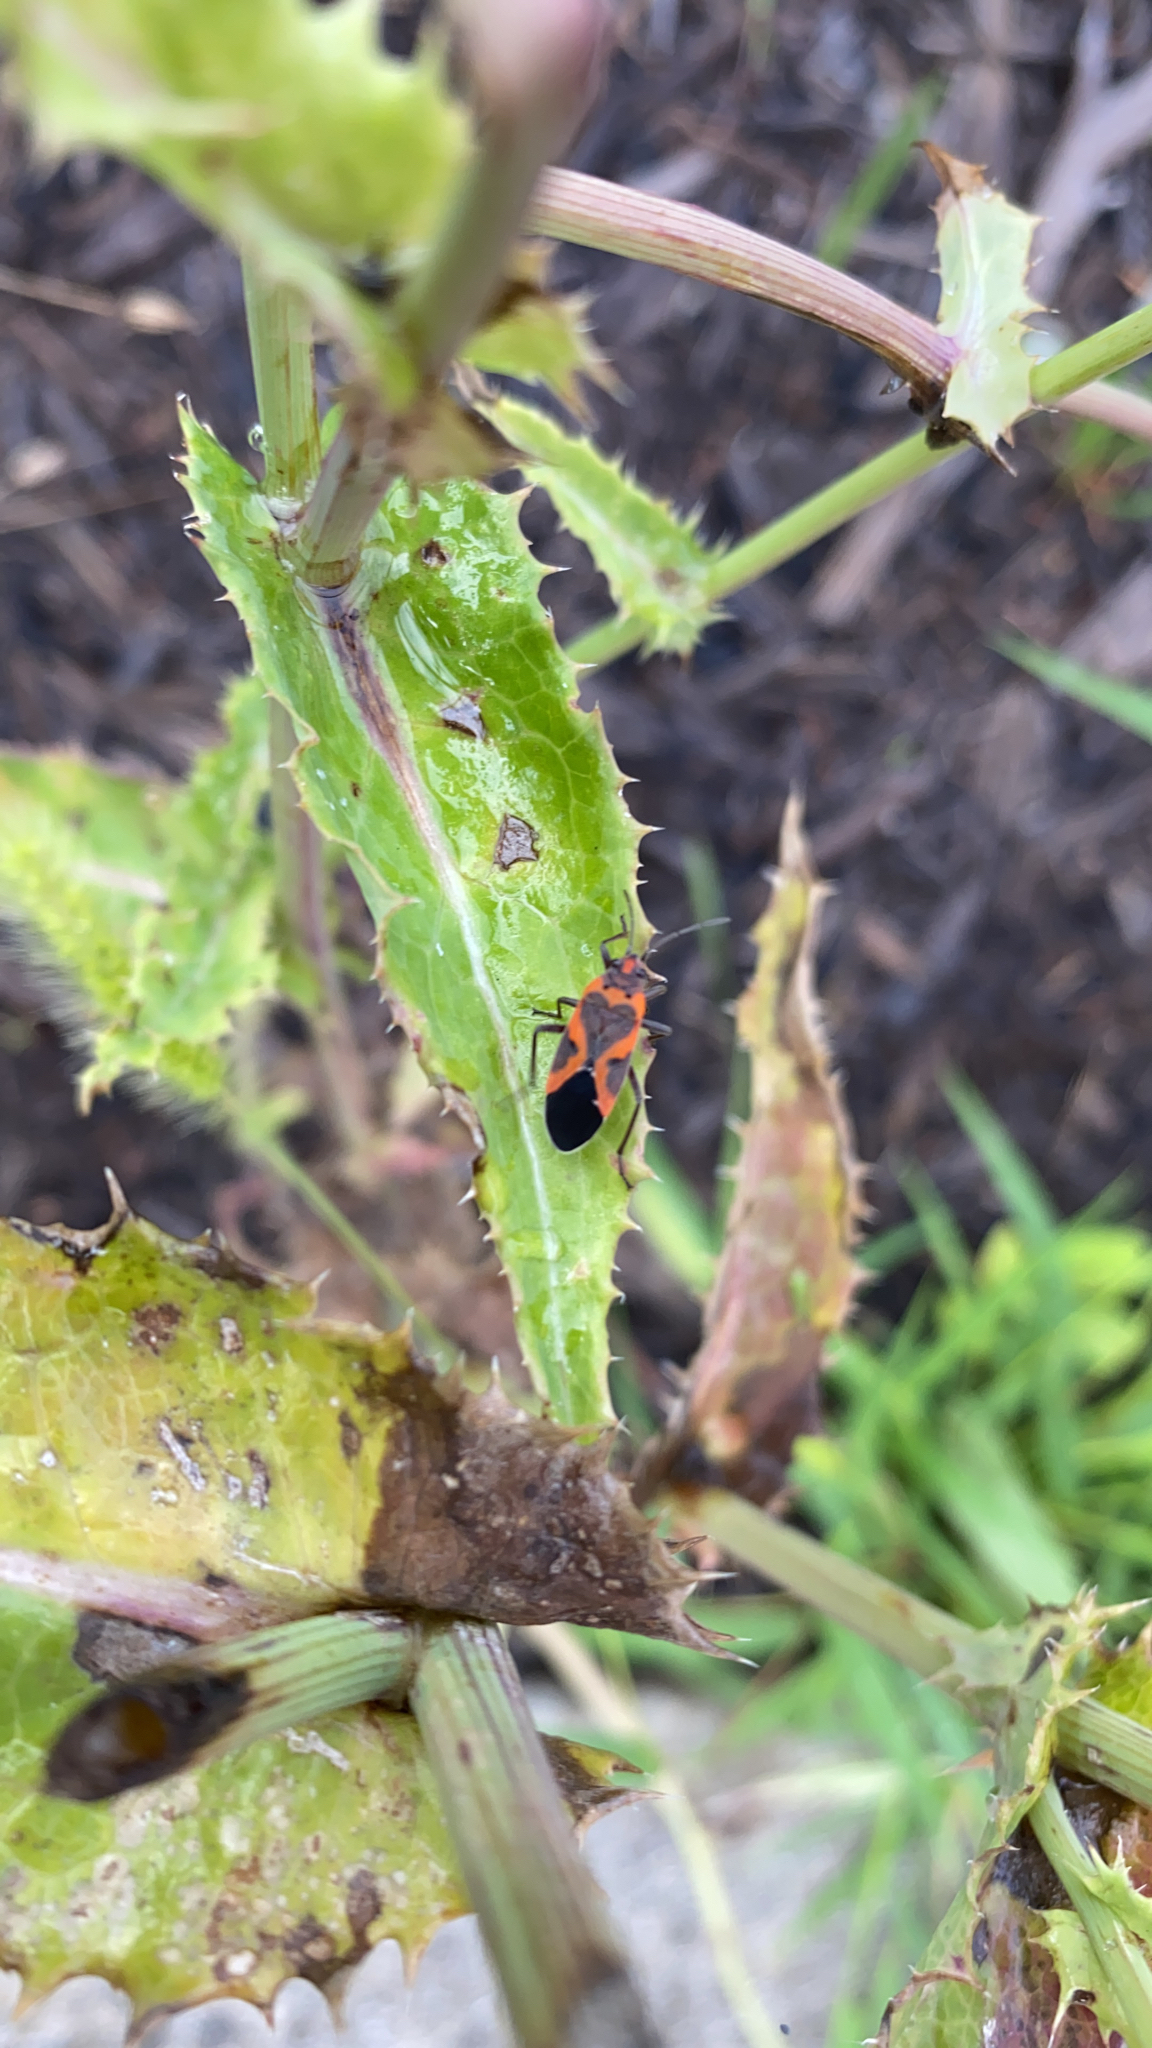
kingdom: Animalia
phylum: Arthropoda
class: Insecta
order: Hemiptera
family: Lygaeidae
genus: Lygaeus
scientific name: Lygaeus kalmii
